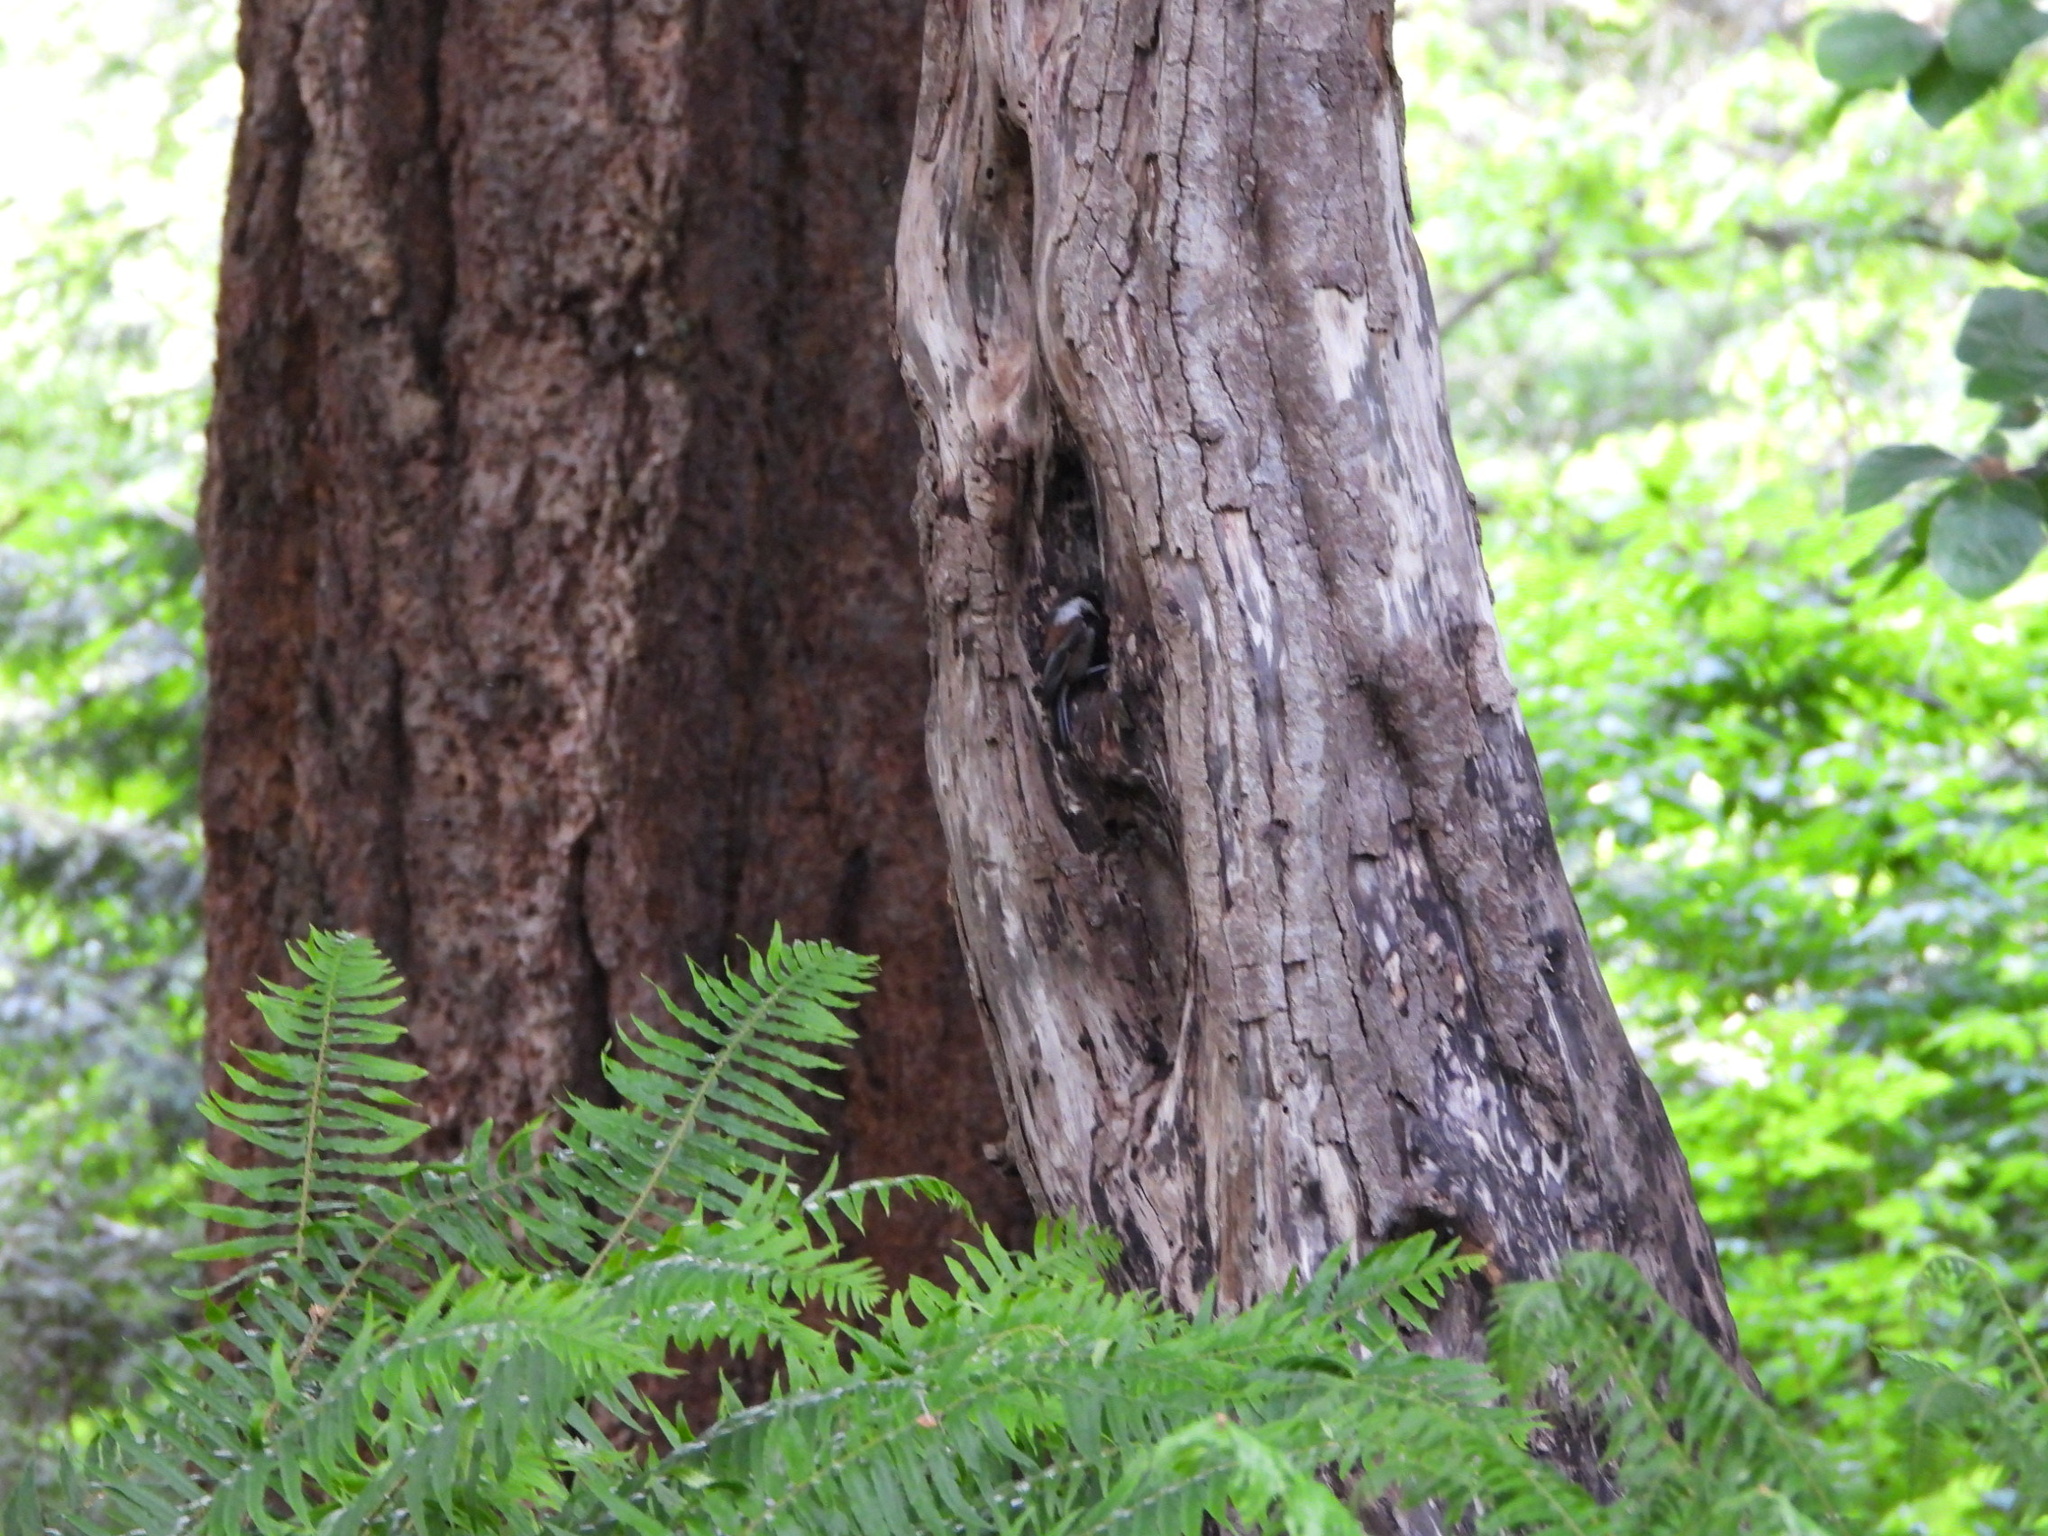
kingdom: Animalia
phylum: Chordata
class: Aves
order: Passeriformes
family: Paridae
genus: Poecile
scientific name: Poecile rufescens
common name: Chestnut-backed chickadee
